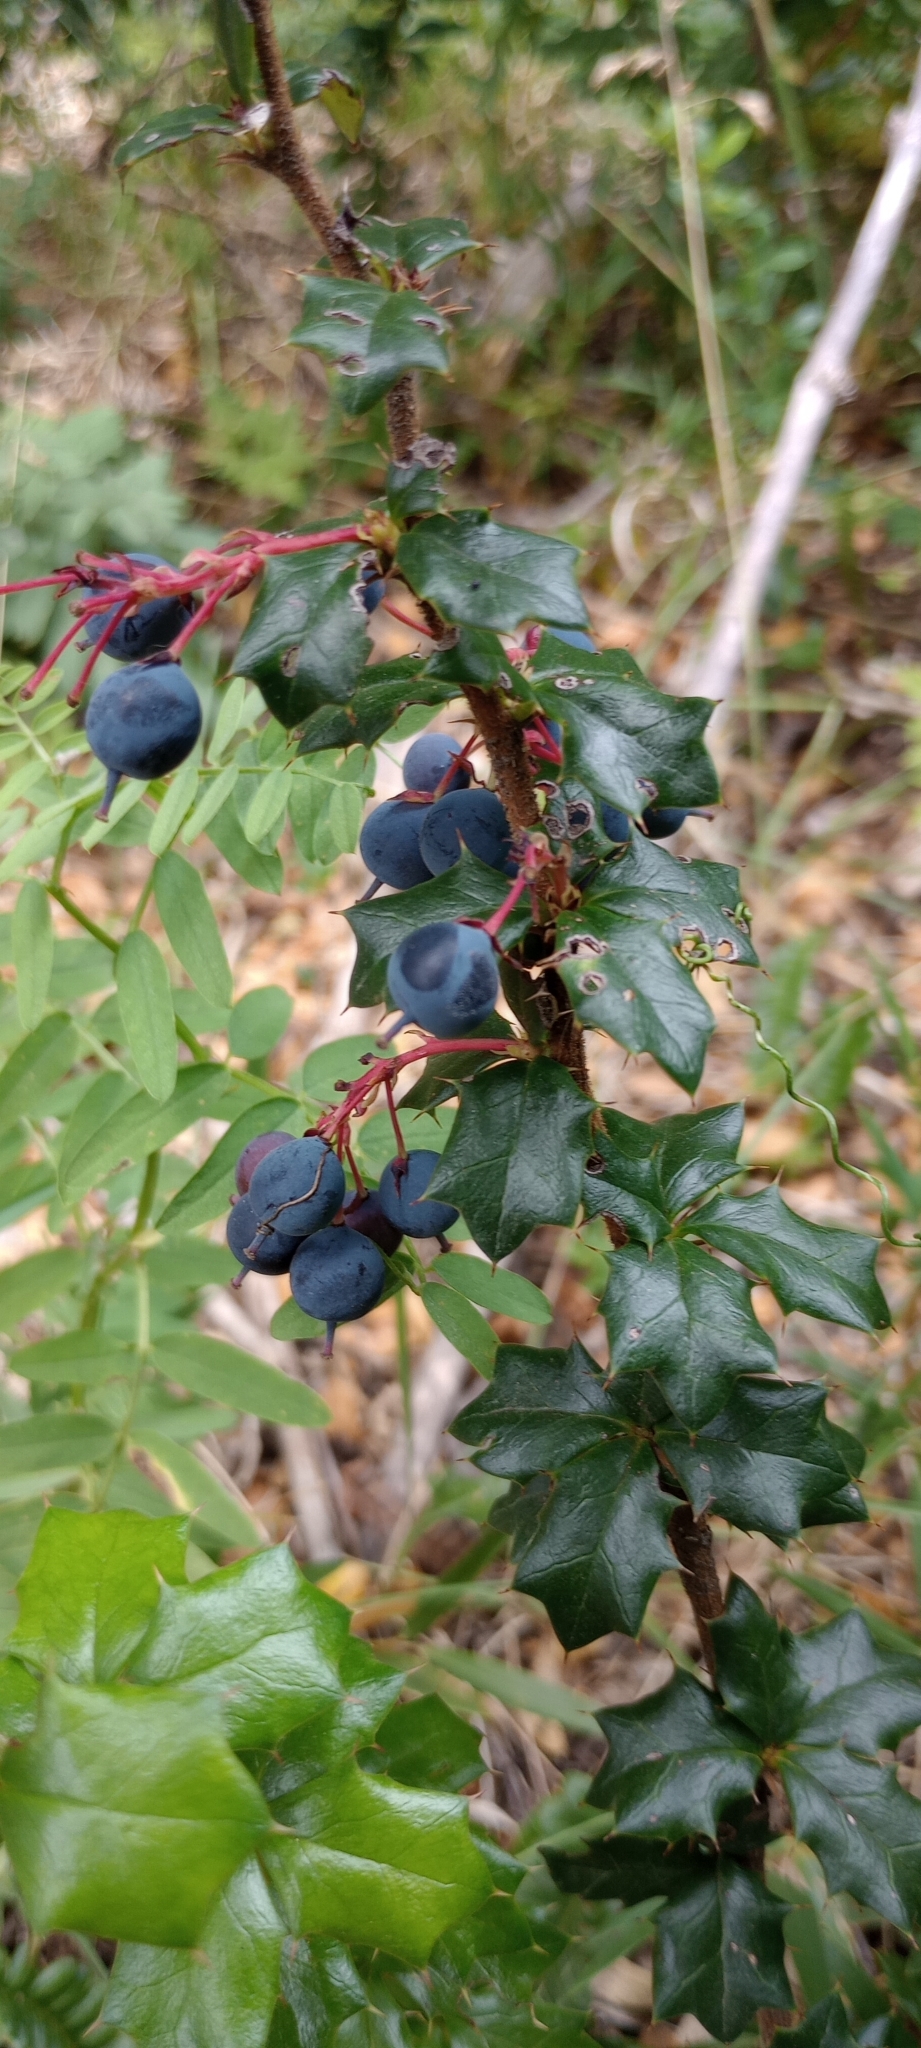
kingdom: Plantae
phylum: Tracheophyta
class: Magnoliopsida
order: Ranunculales
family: Berberidaceae
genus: Berberis
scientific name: Berberis darwinii
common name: Darwin's barberry
